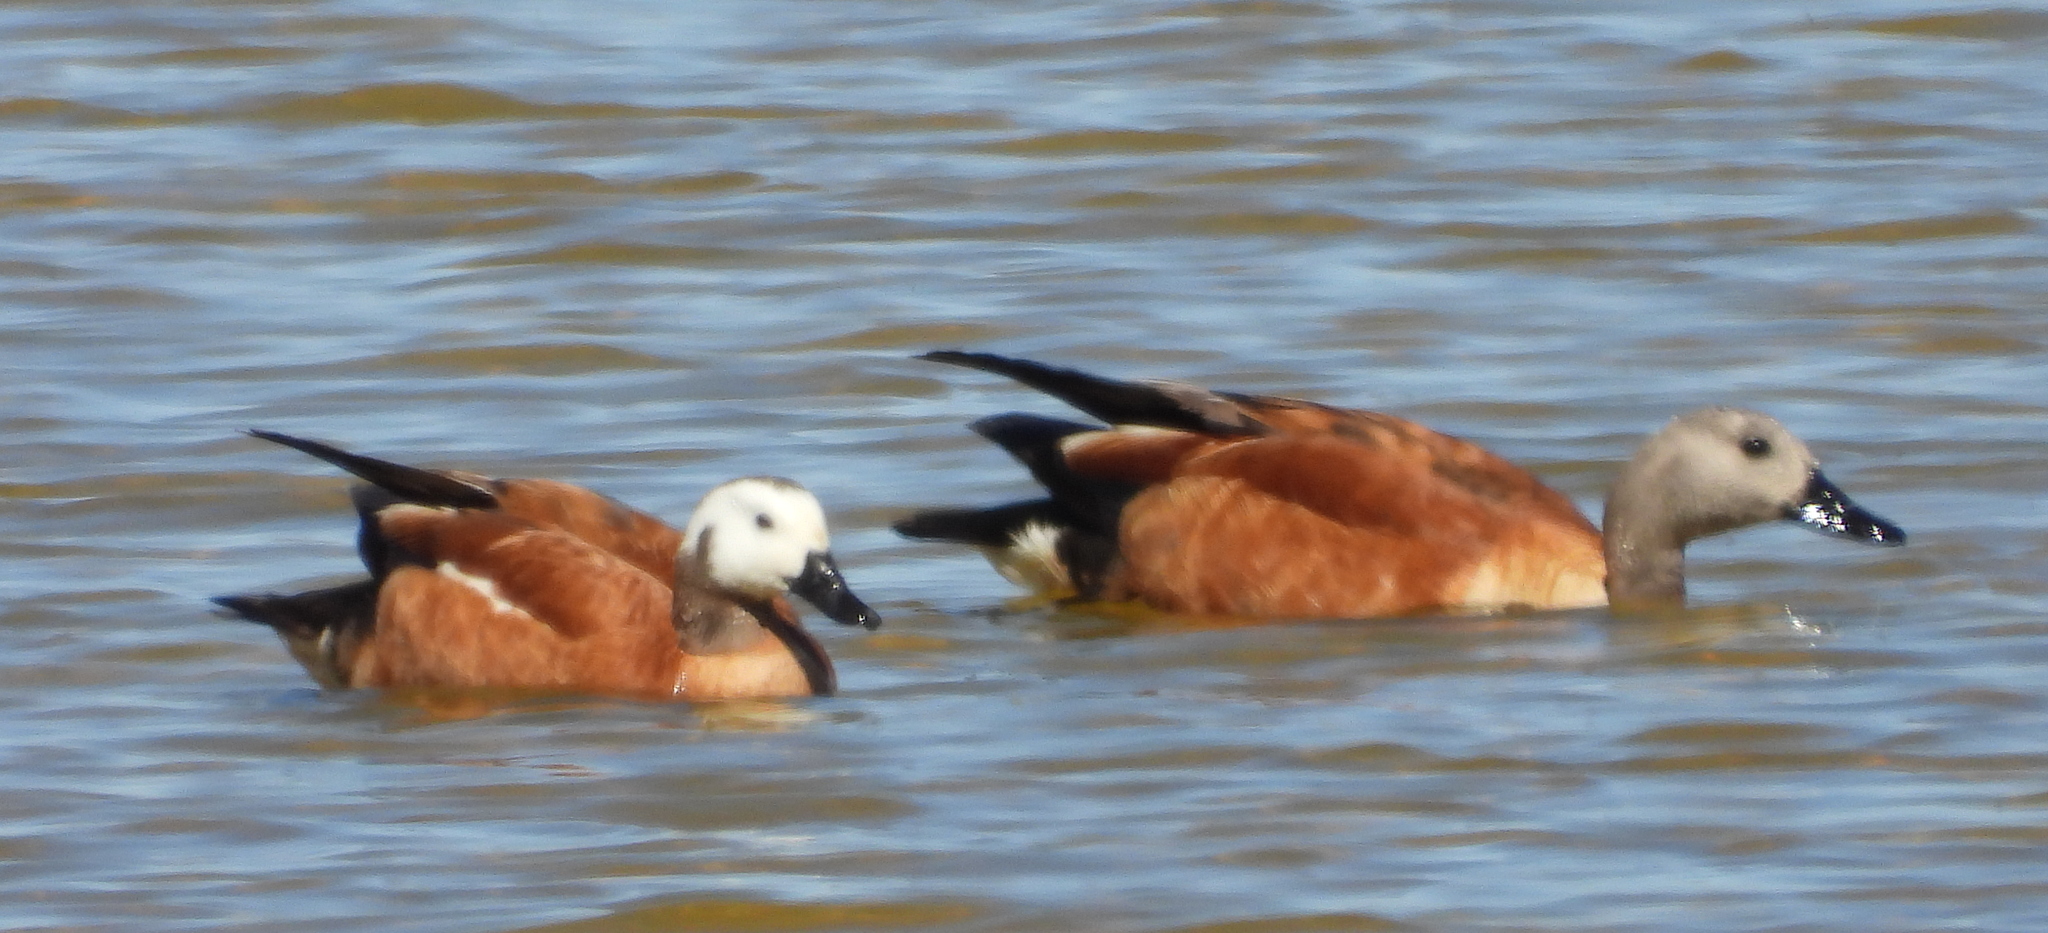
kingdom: Animalia
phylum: Chordata
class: Aves
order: Anseriformes
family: Anatidae
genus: Tadorna
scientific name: Tadorna cana
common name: South african shelduck
